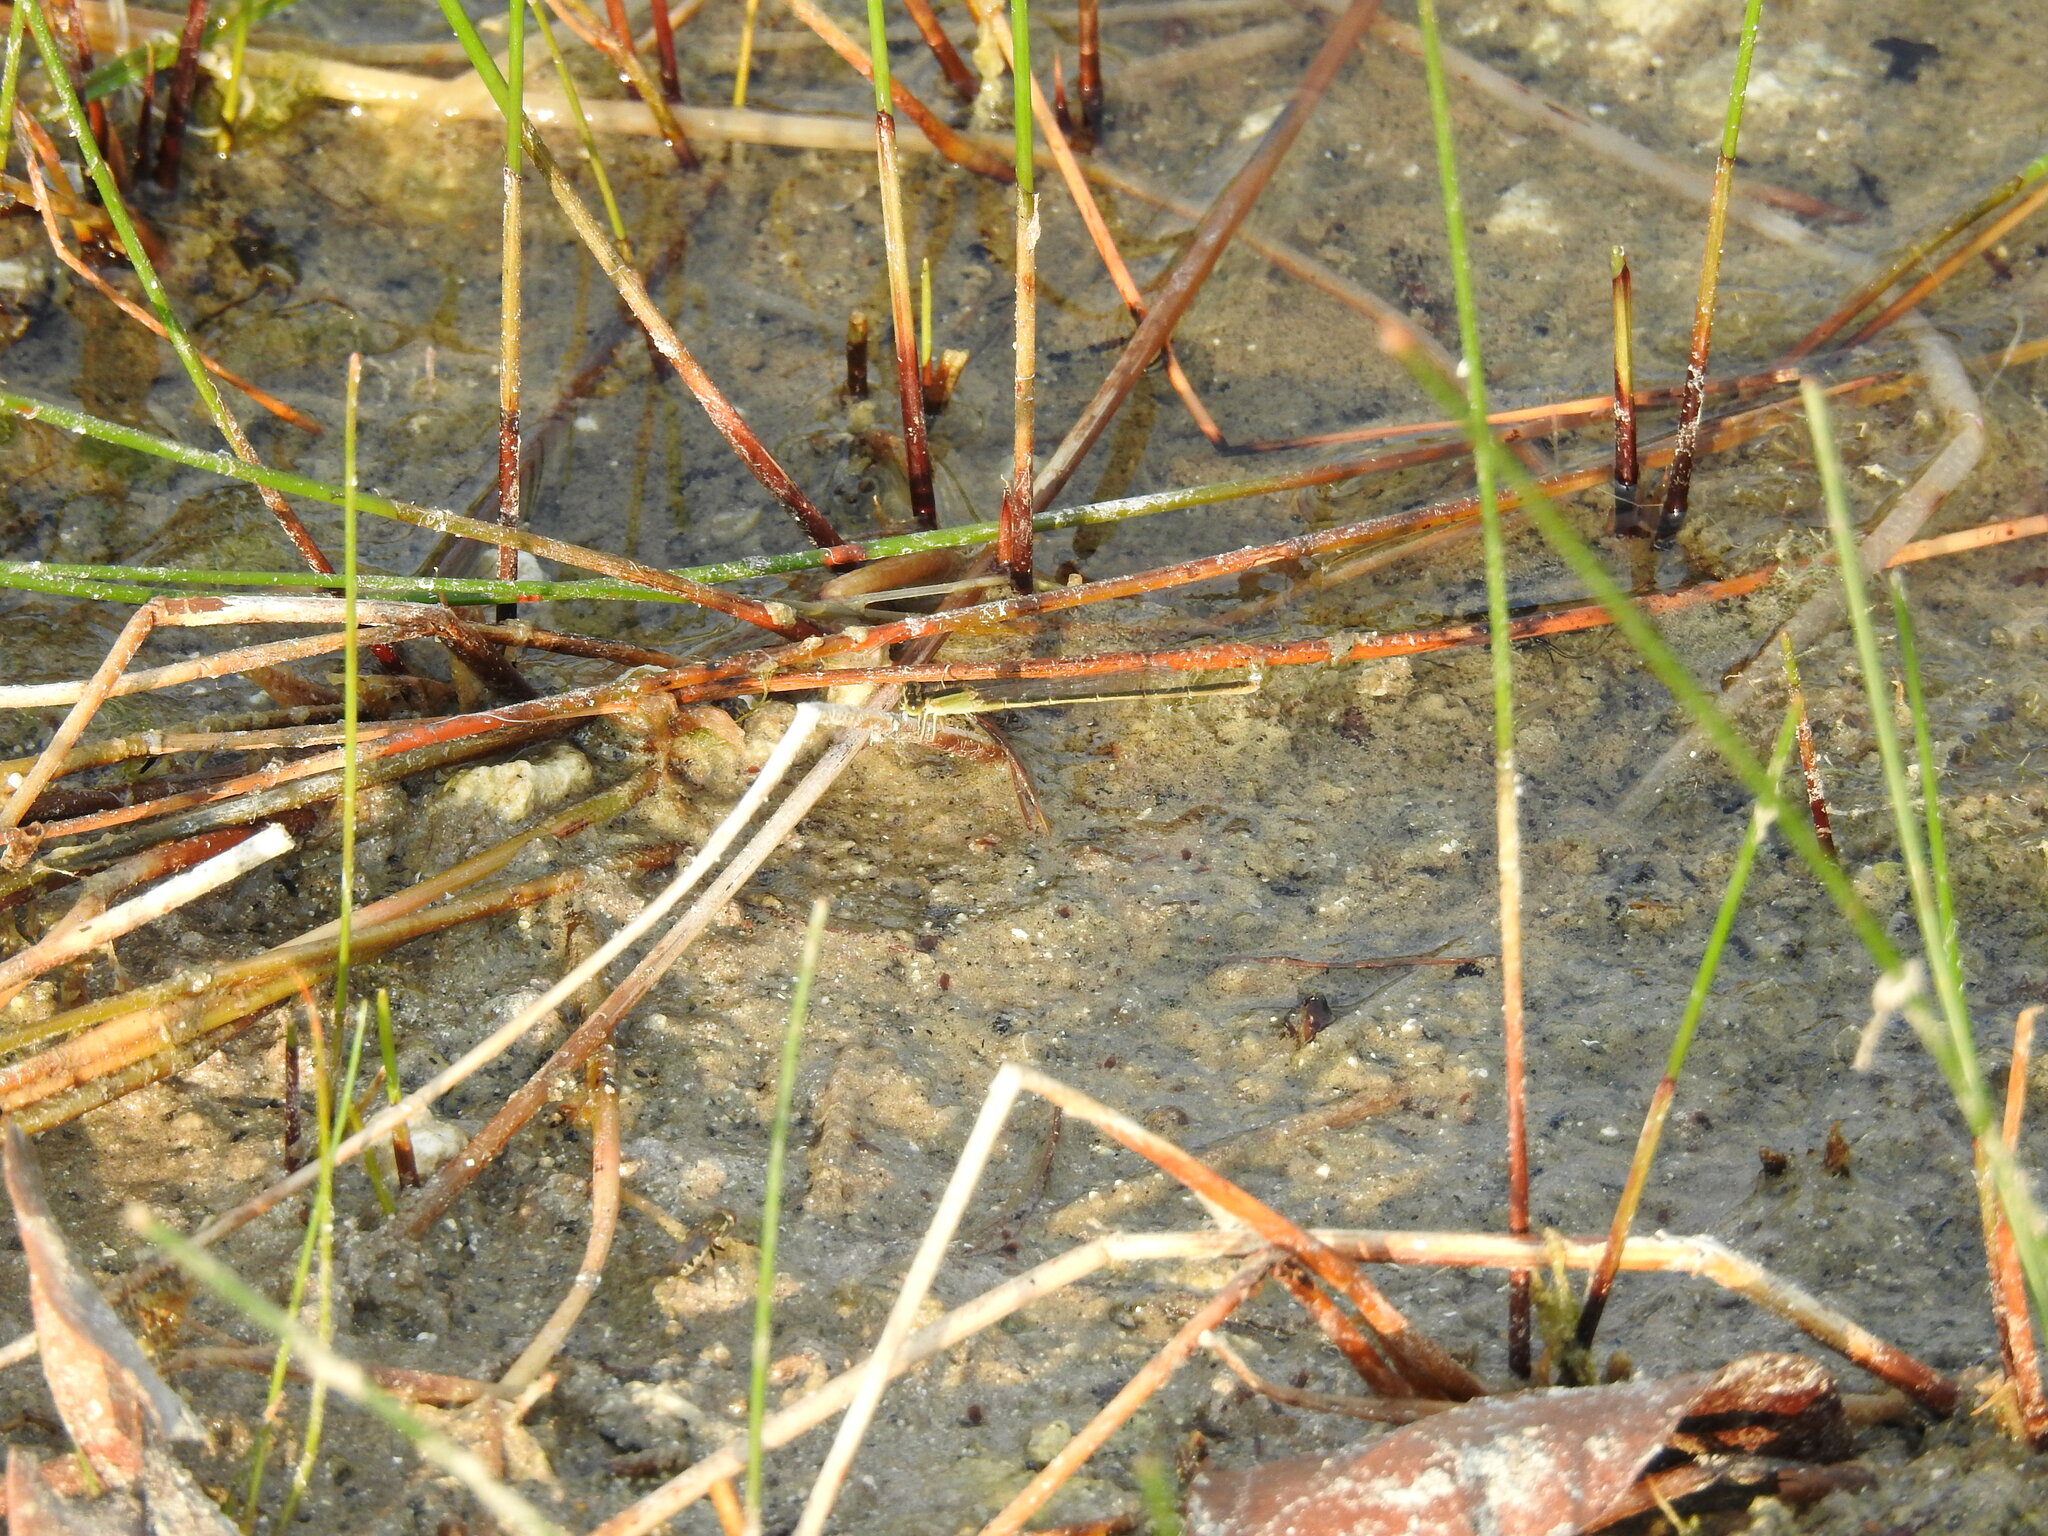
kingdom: Animalia
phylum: Arthropoda
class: Insecta
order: Odonata
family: Coenagrionidae
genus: Ischnura
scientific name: Ischnura ramburii
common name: Rambur's forktail
